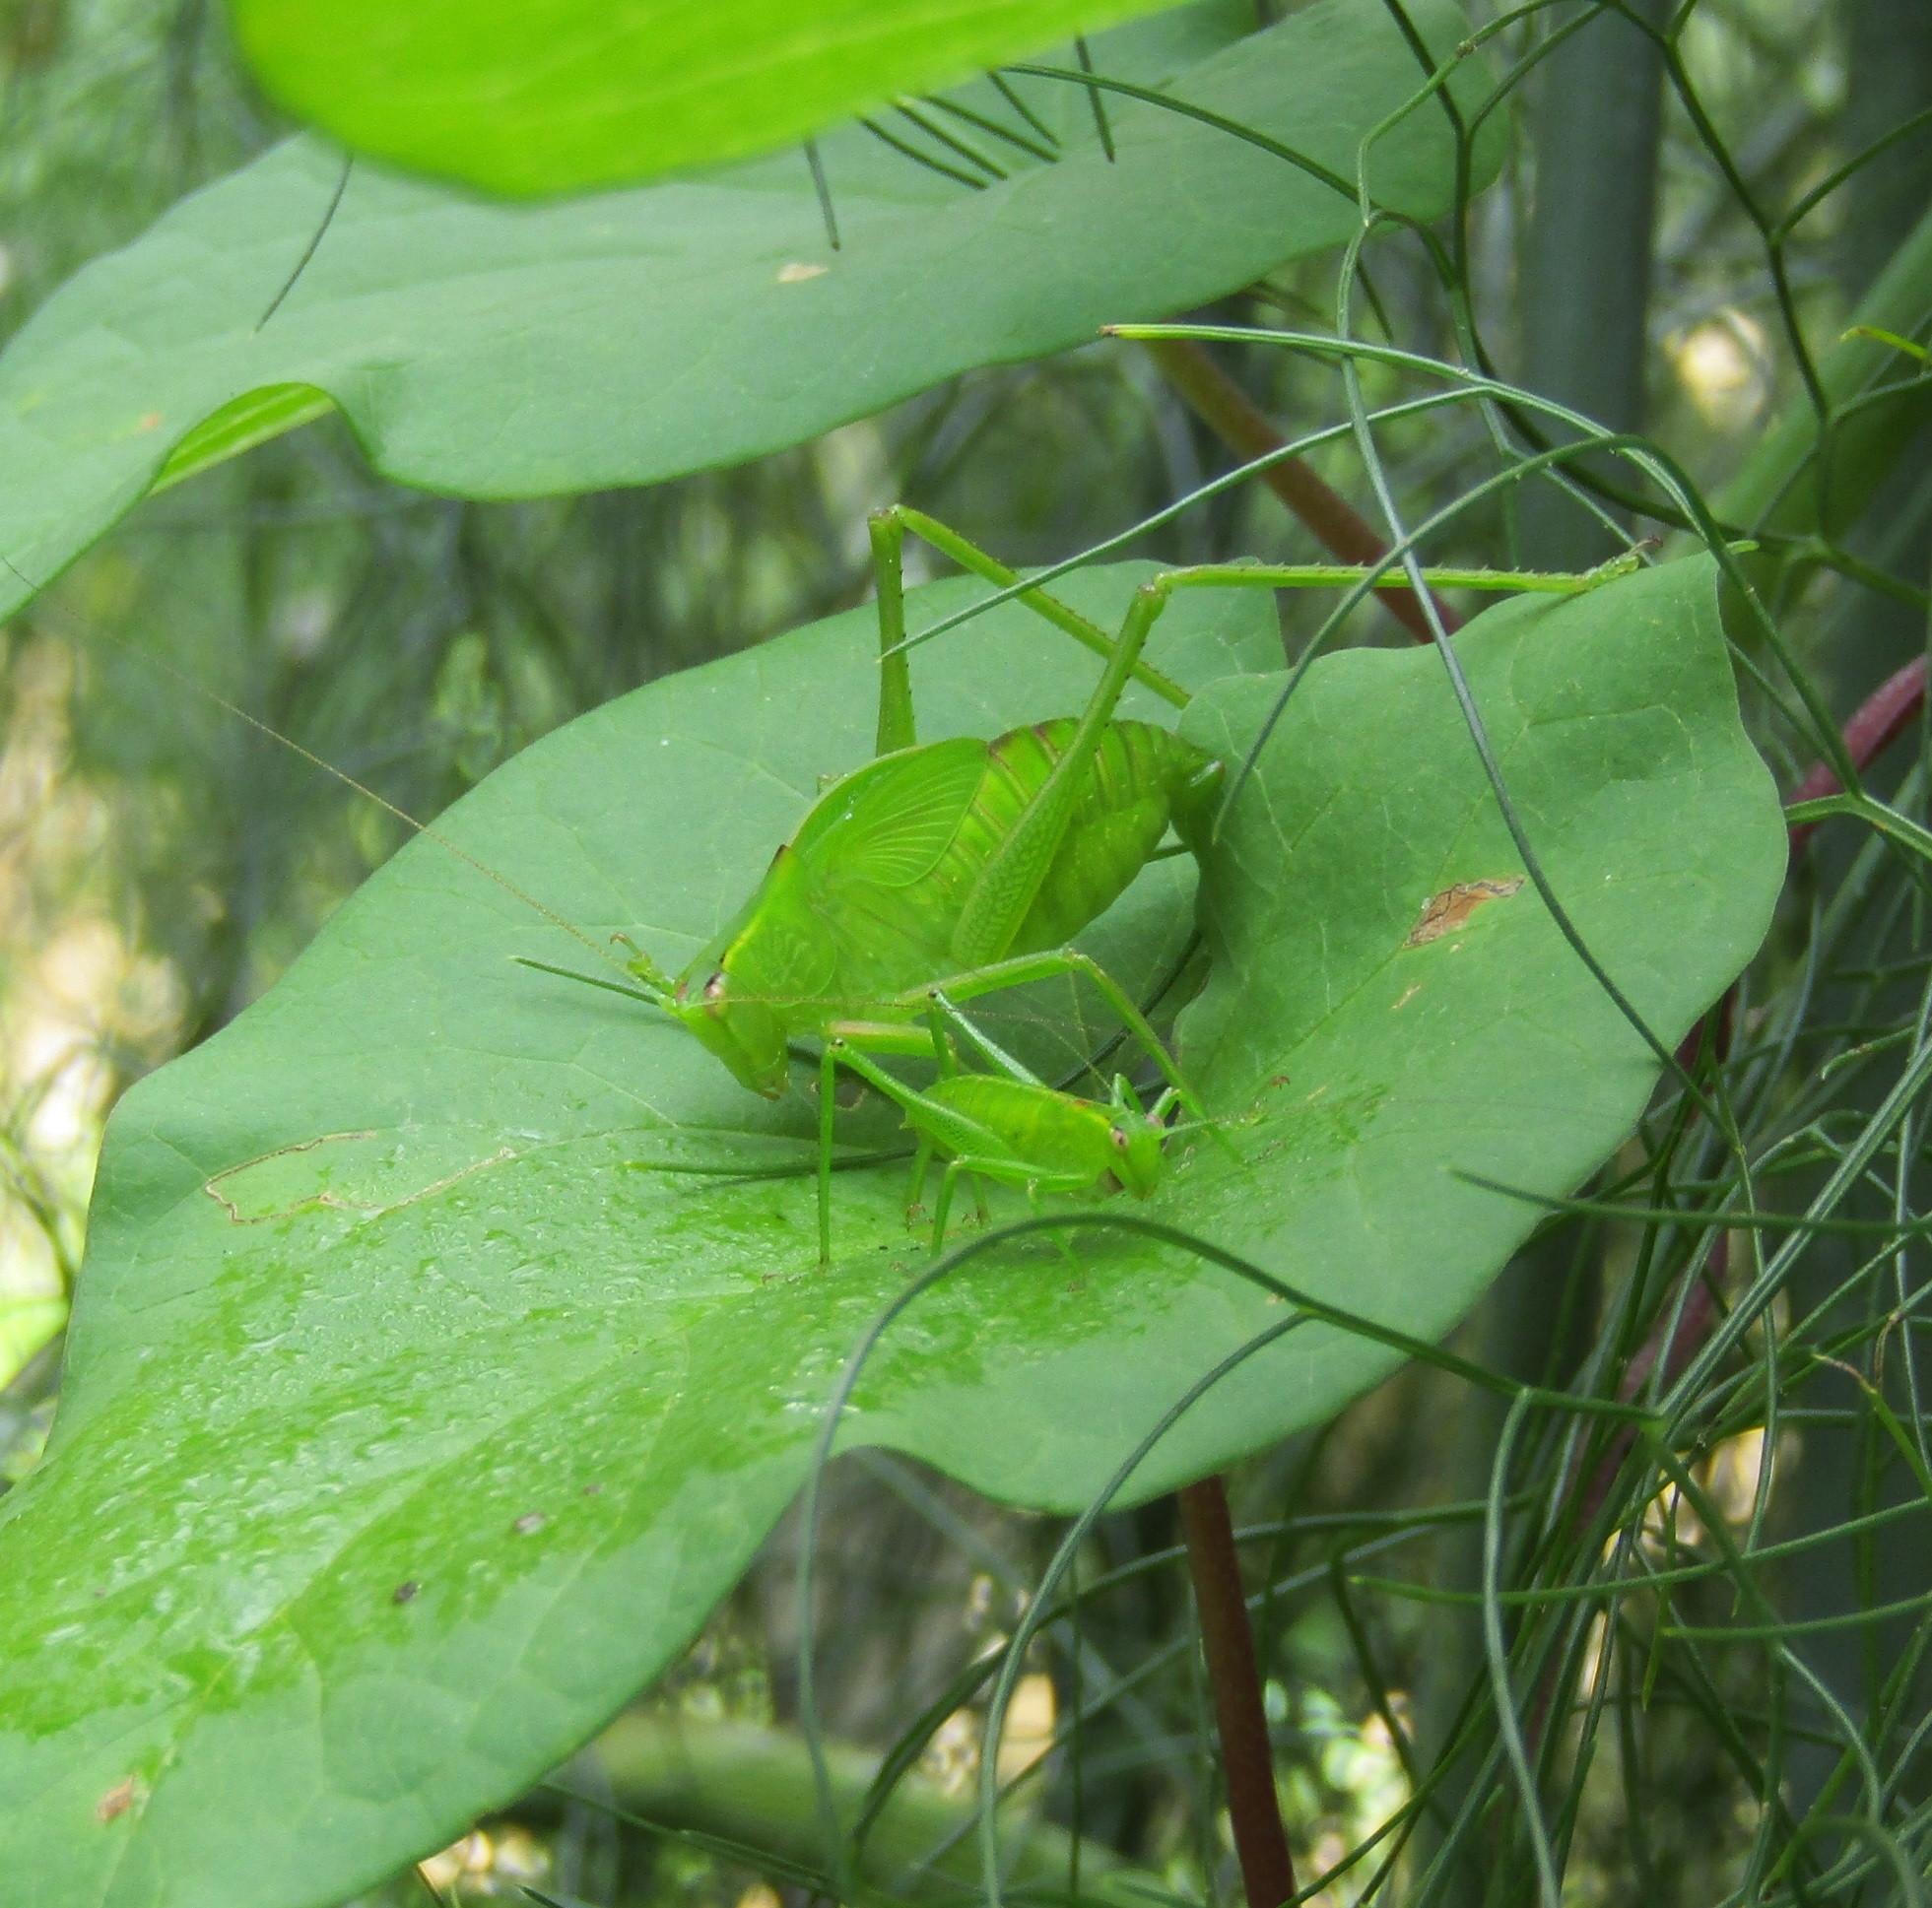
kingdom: Animalia
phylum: Arthropoda
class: Insecta
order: Orthoptera
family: Tettigoniidae
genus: Caedicia
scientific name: Caedicia simplex
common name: Common garden katydid
